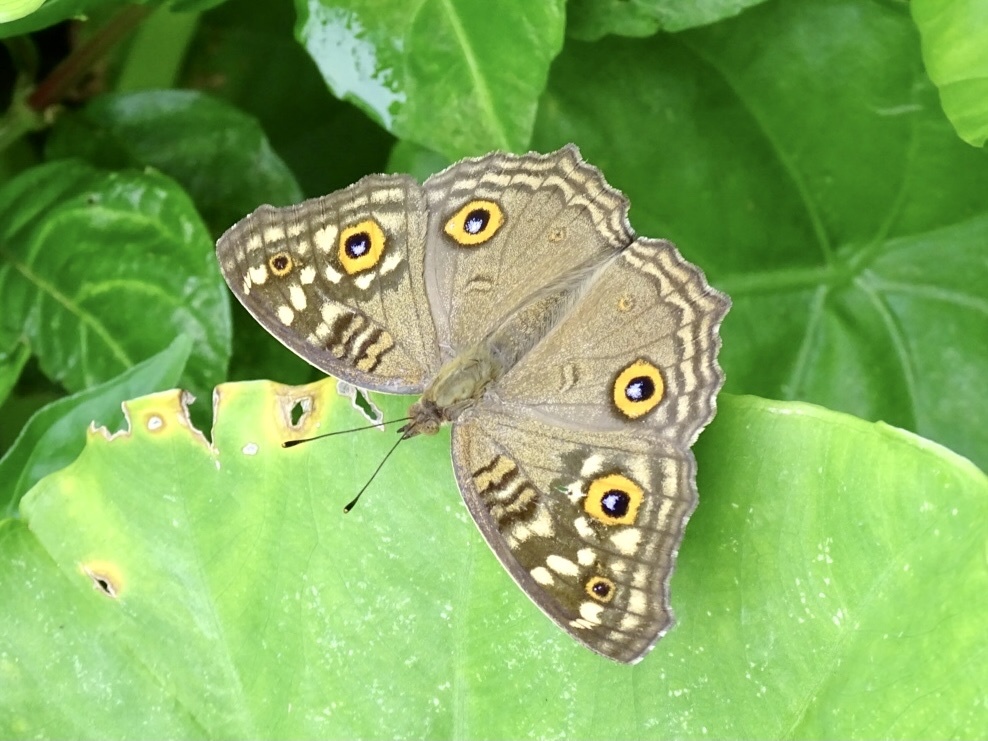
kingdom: Animalia
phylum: Arthropoda
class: Insecta
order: Lepidoptera
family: Nymphalidae
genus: Junonia
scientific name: Junonia lemonias
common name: Lemon pansy
